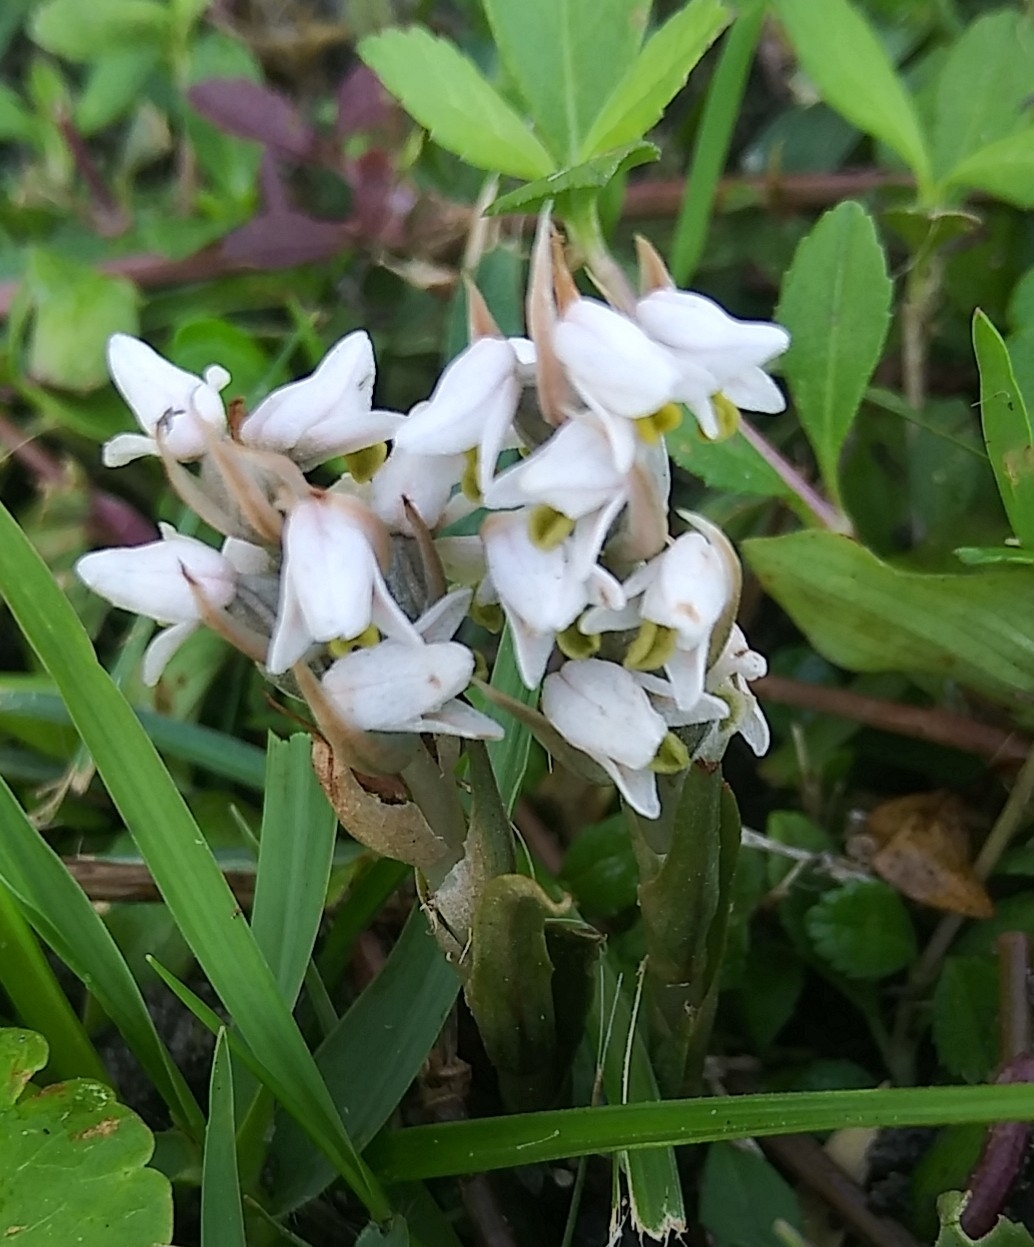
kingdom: Plantae
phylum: Tracheophyta
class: Liliopsida
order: Asparagales
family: Orchidaceae
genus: Zeuxine
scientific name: Zeuxine strateumatica
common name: Soldier's orchid
